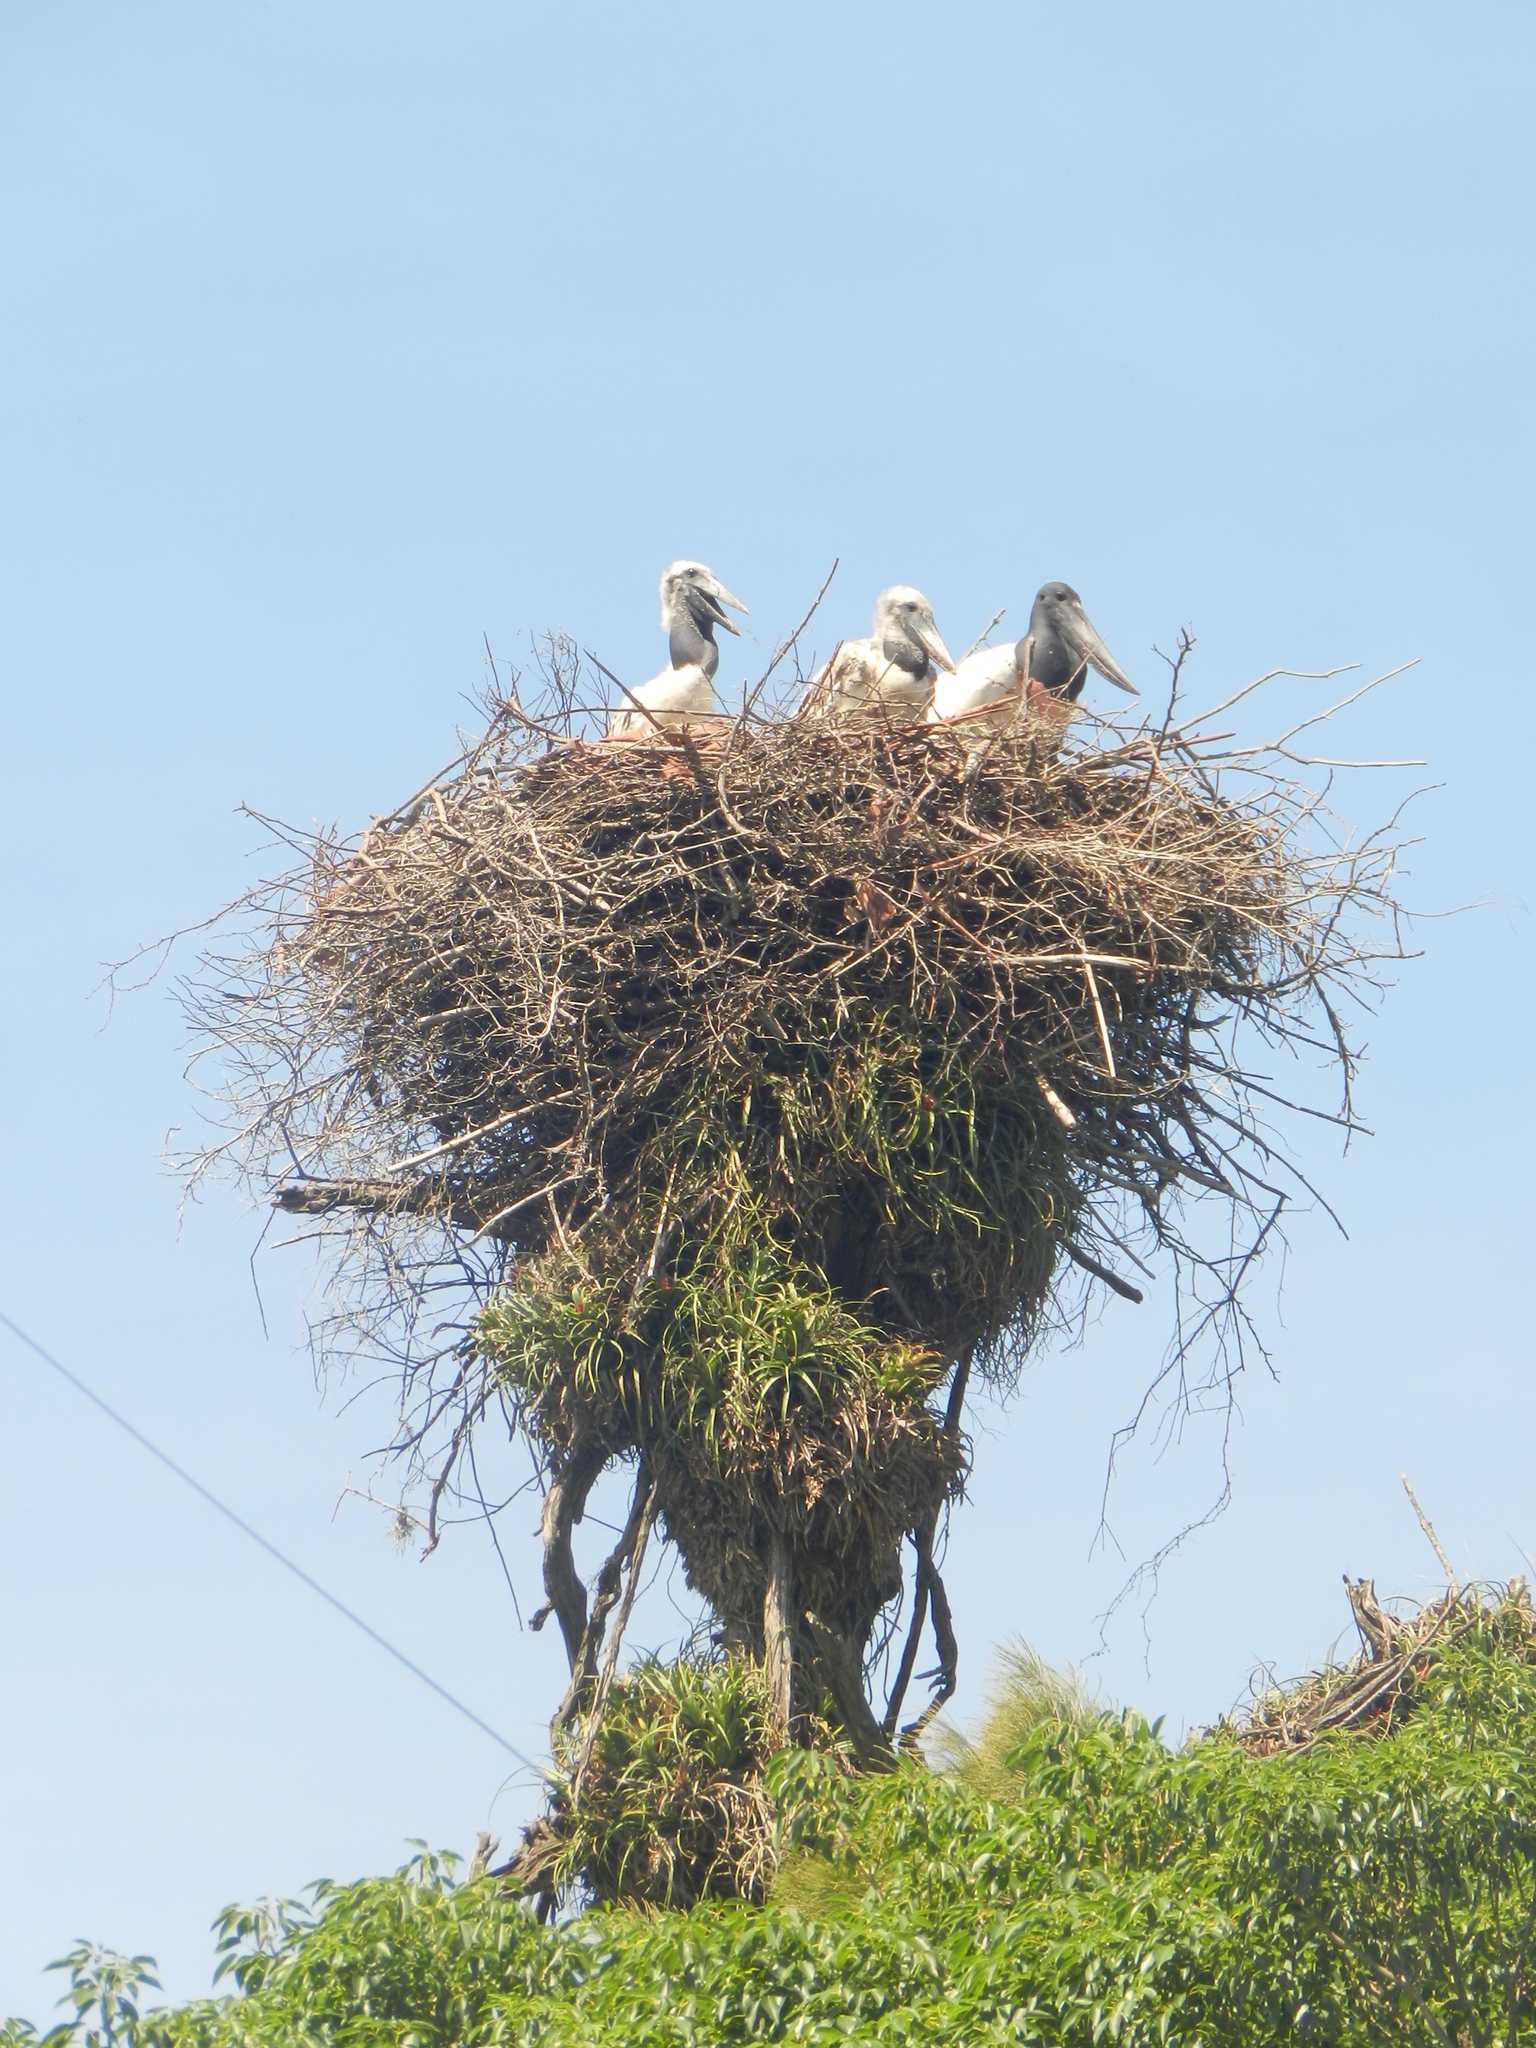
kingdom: Animalia
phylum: Chordata
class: Aves
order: Ciconiiformes
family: Ciconiidae
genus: Jabiru
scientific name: Jabiru mycteria
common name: Jabiru
